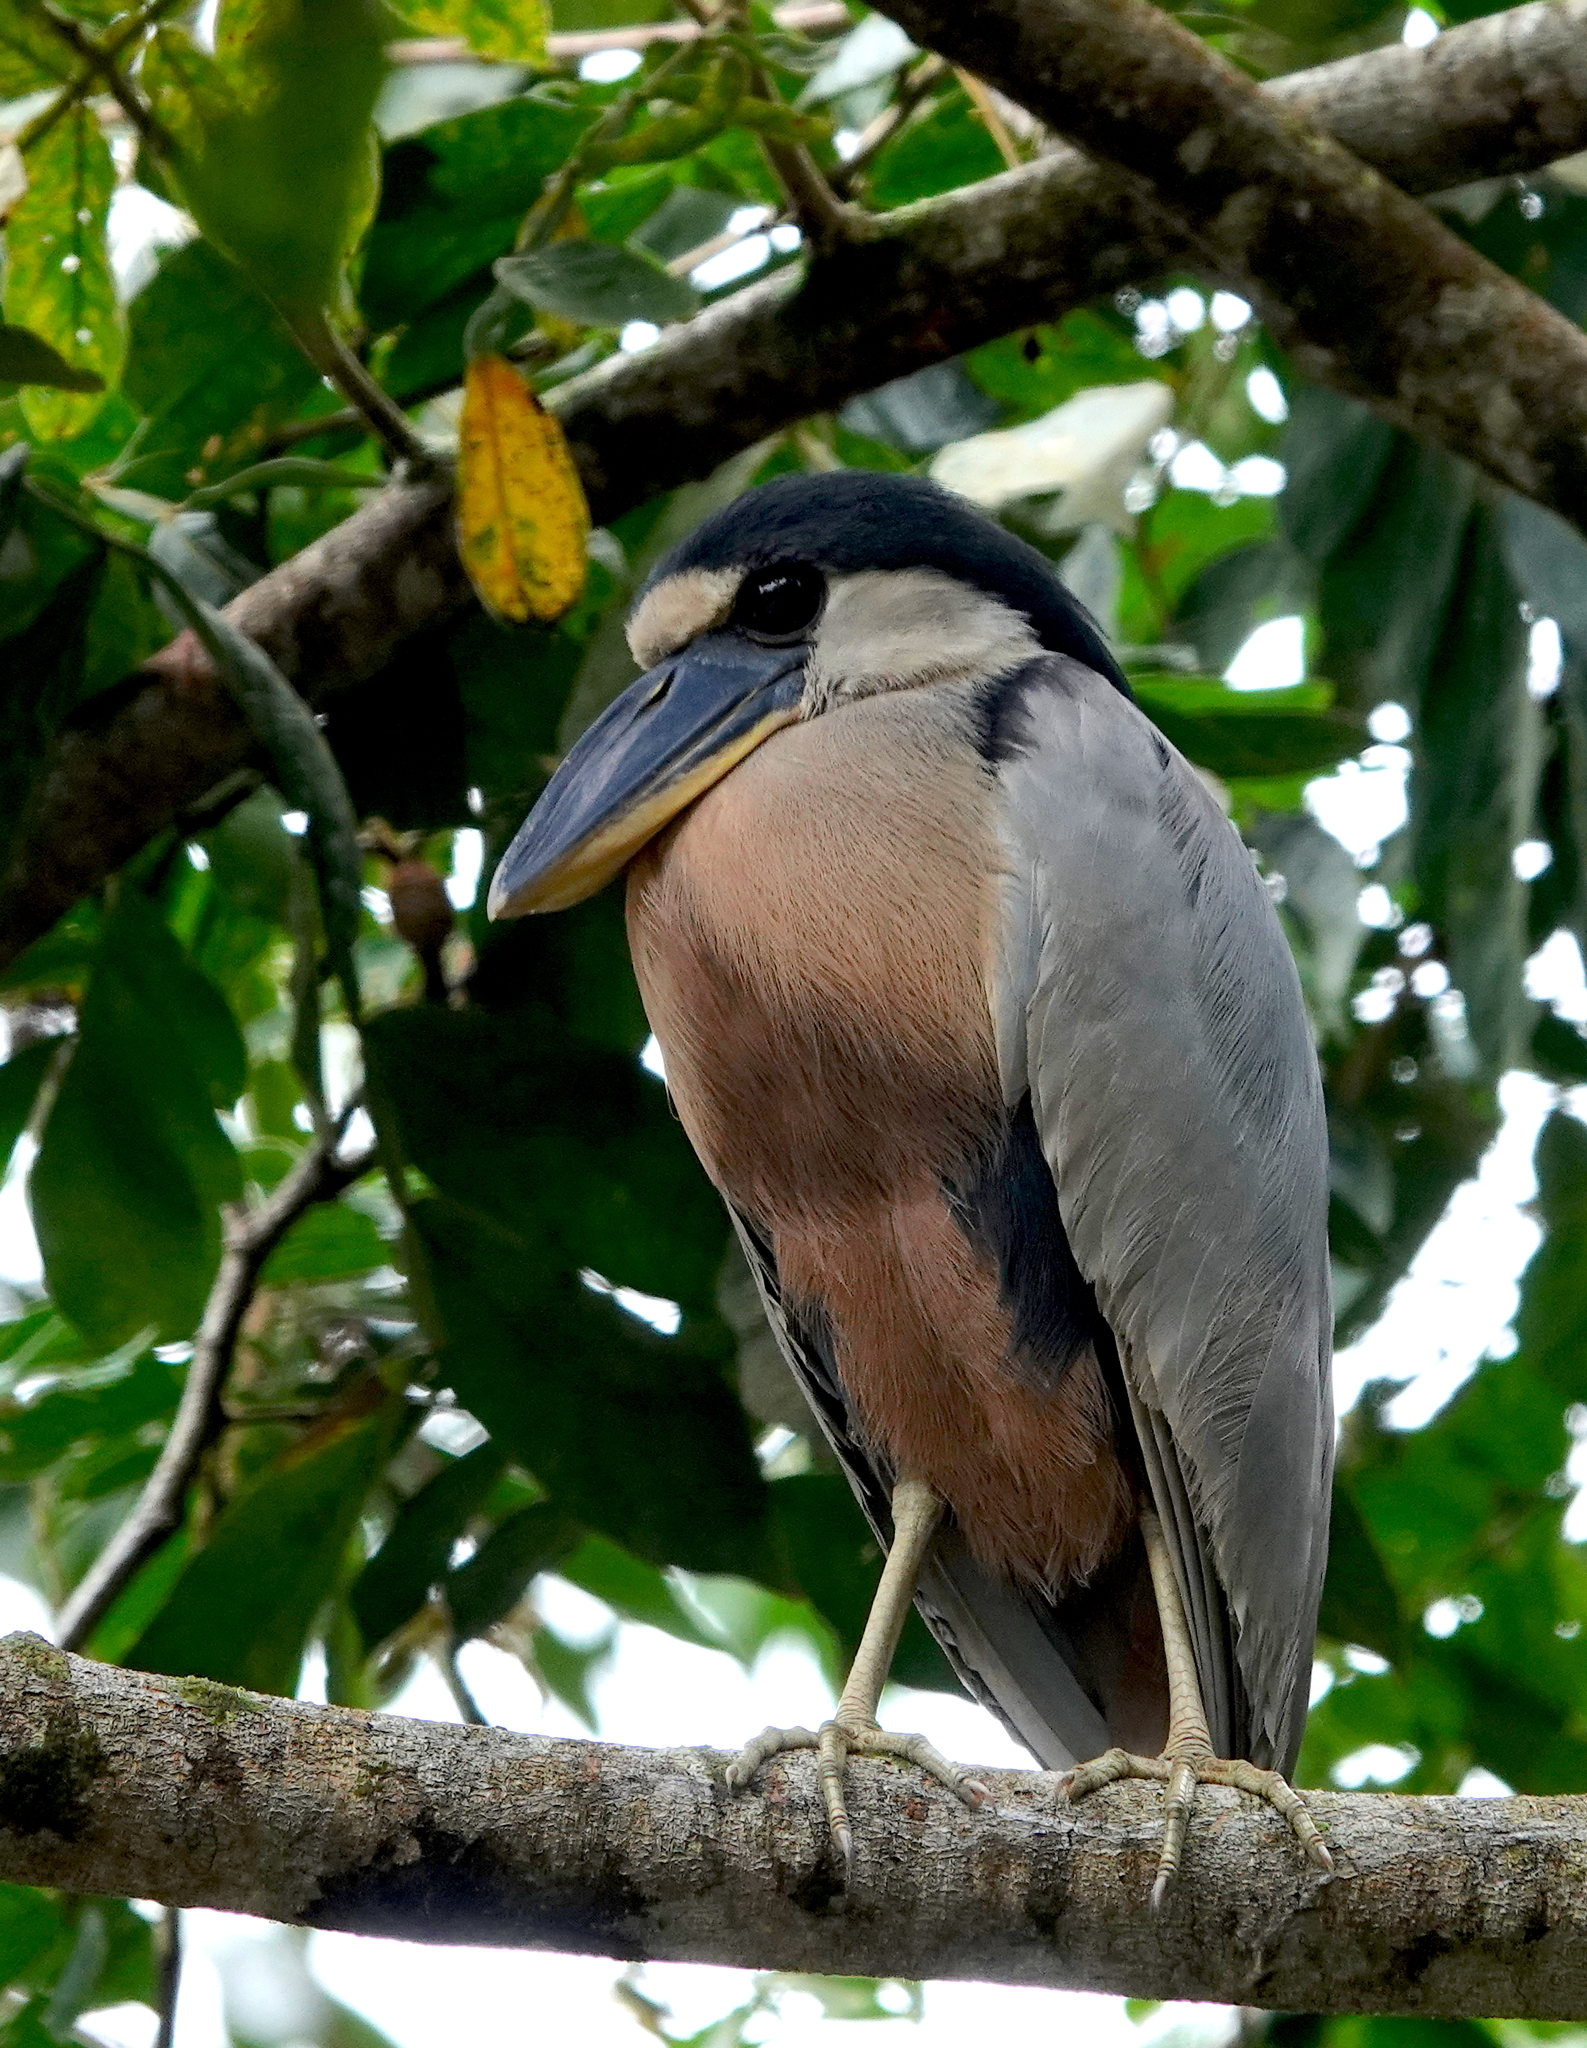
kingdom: Animalia
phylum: Chordata
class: Aves
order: Pelecaniformes
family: Ardeidae
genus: Cochlearius
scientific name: Cochlearius cochlearius
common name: Boat-billed heron
